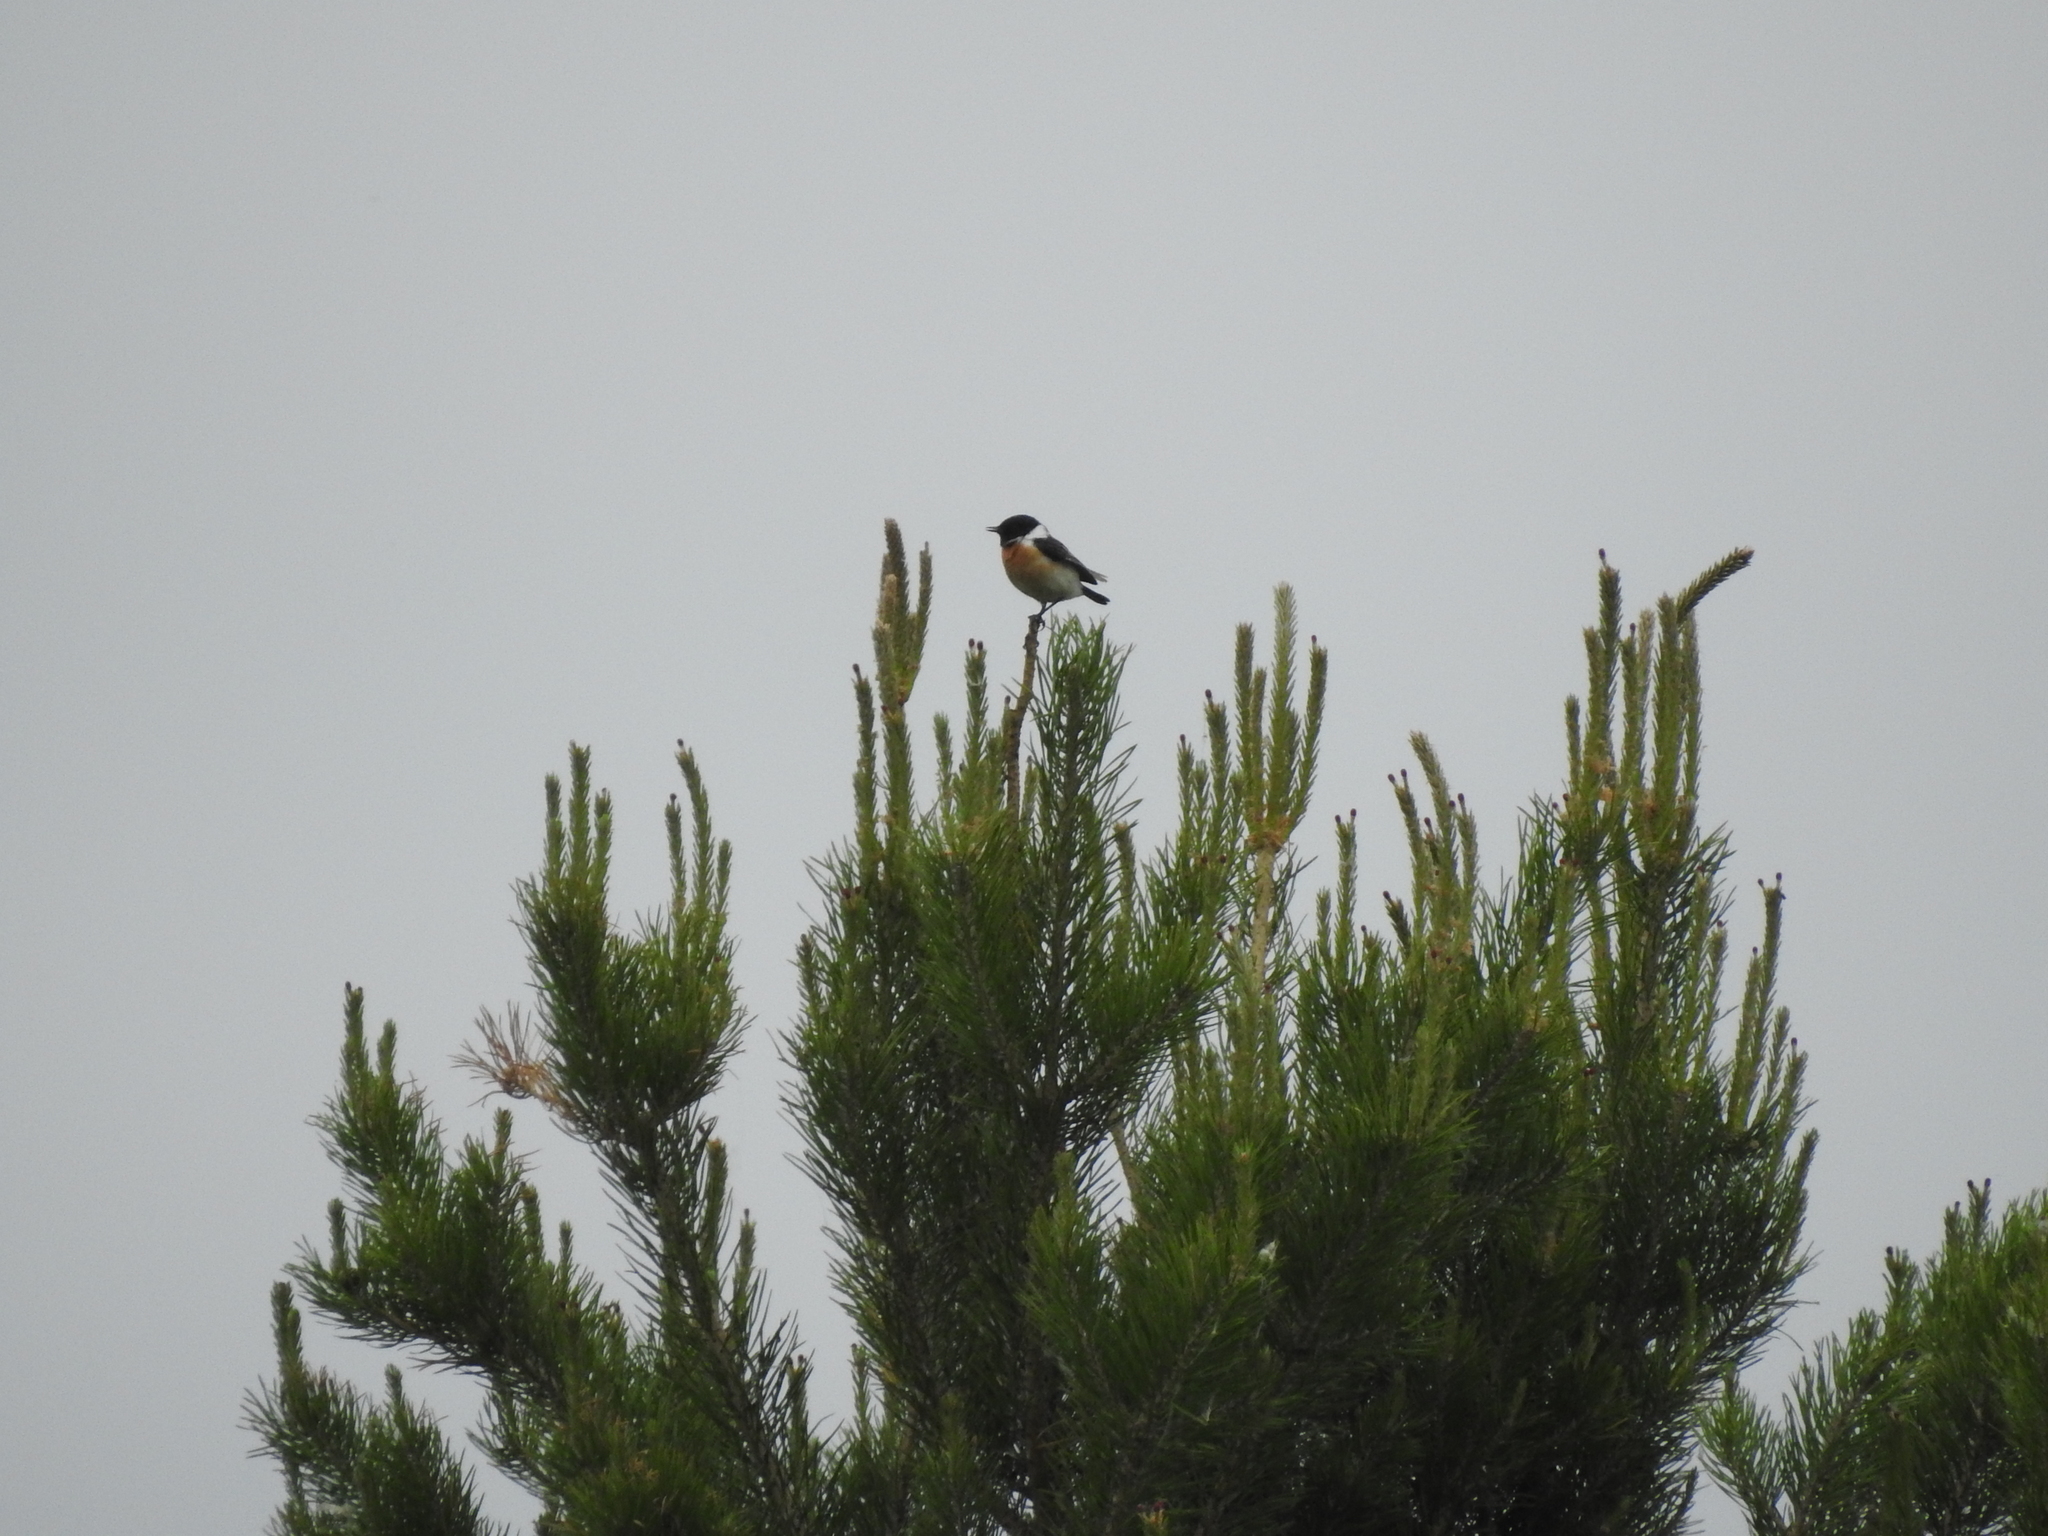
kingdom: Animalia
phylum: Chordata
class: Aves
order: Passeriformes
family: Muscicapidae
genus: Saxicola
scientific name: Saxicola maurus
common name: Siberian stonechat
